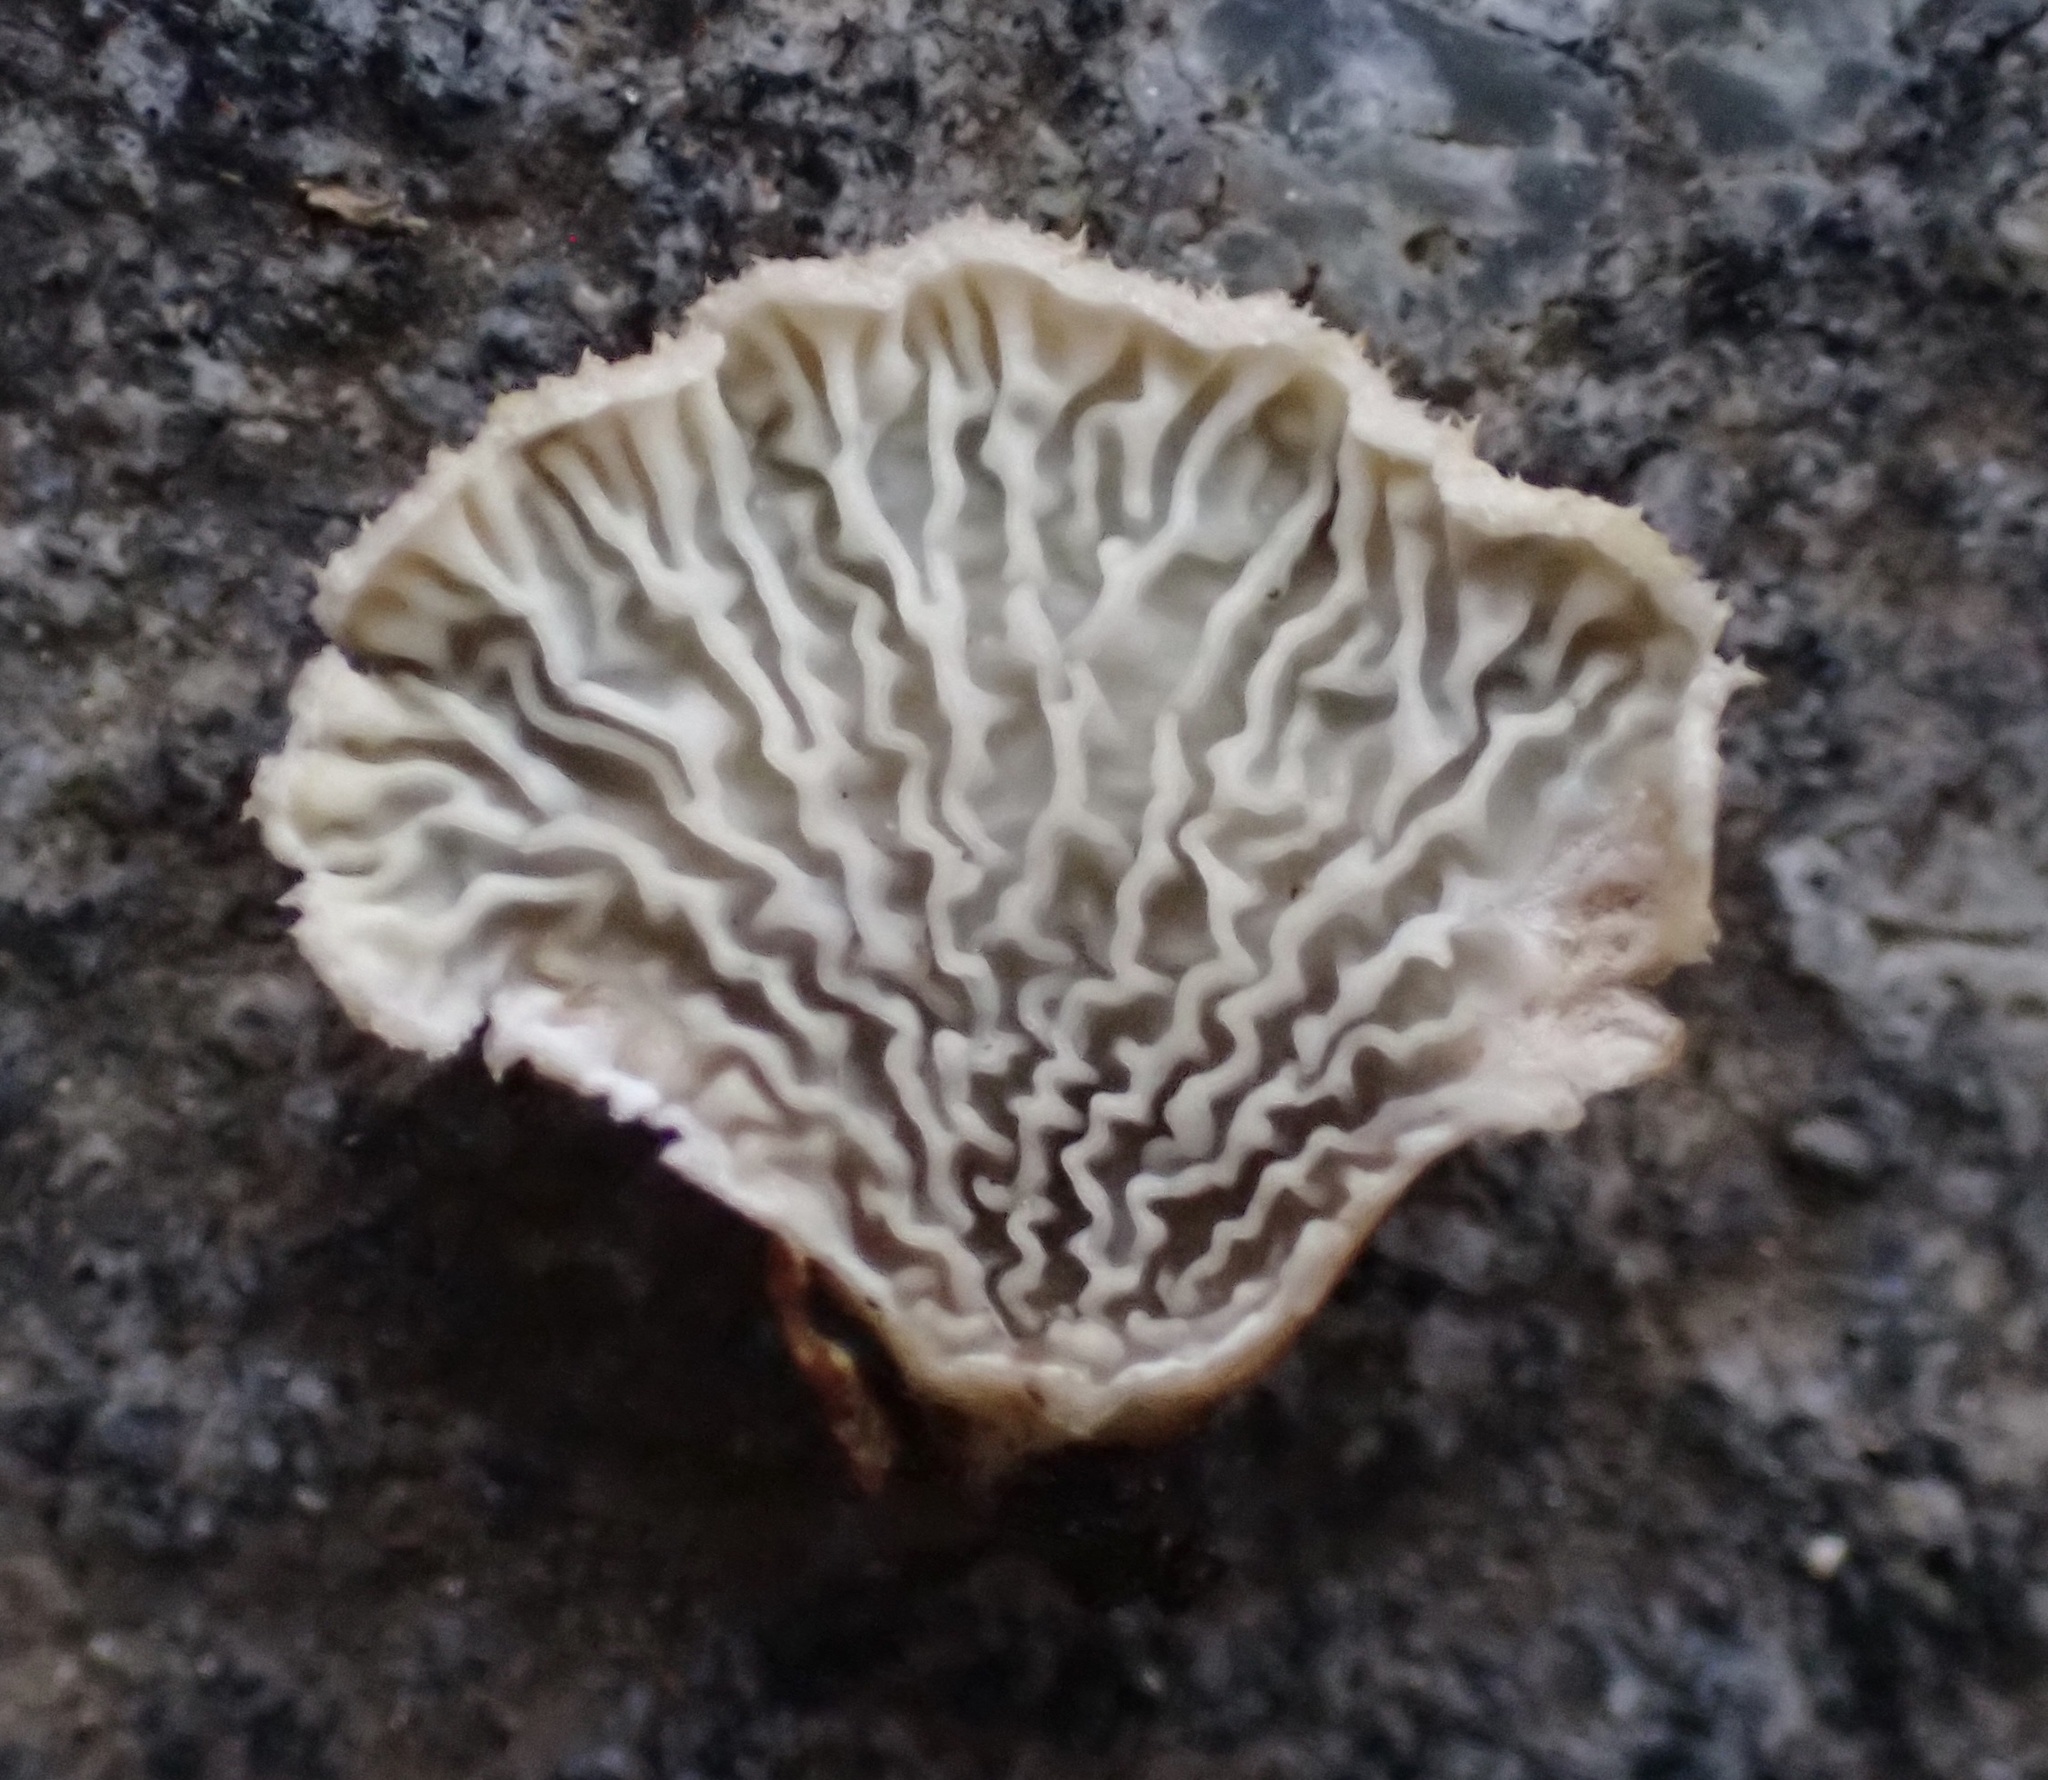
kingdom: Fungi
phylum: Basidiomycota
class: Agaricomycetes
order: Amylocorticiales
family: Amylocorticiaceae
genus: Plicaturopsis
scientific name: Plicaturopsis crispa
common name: Crimped gill
